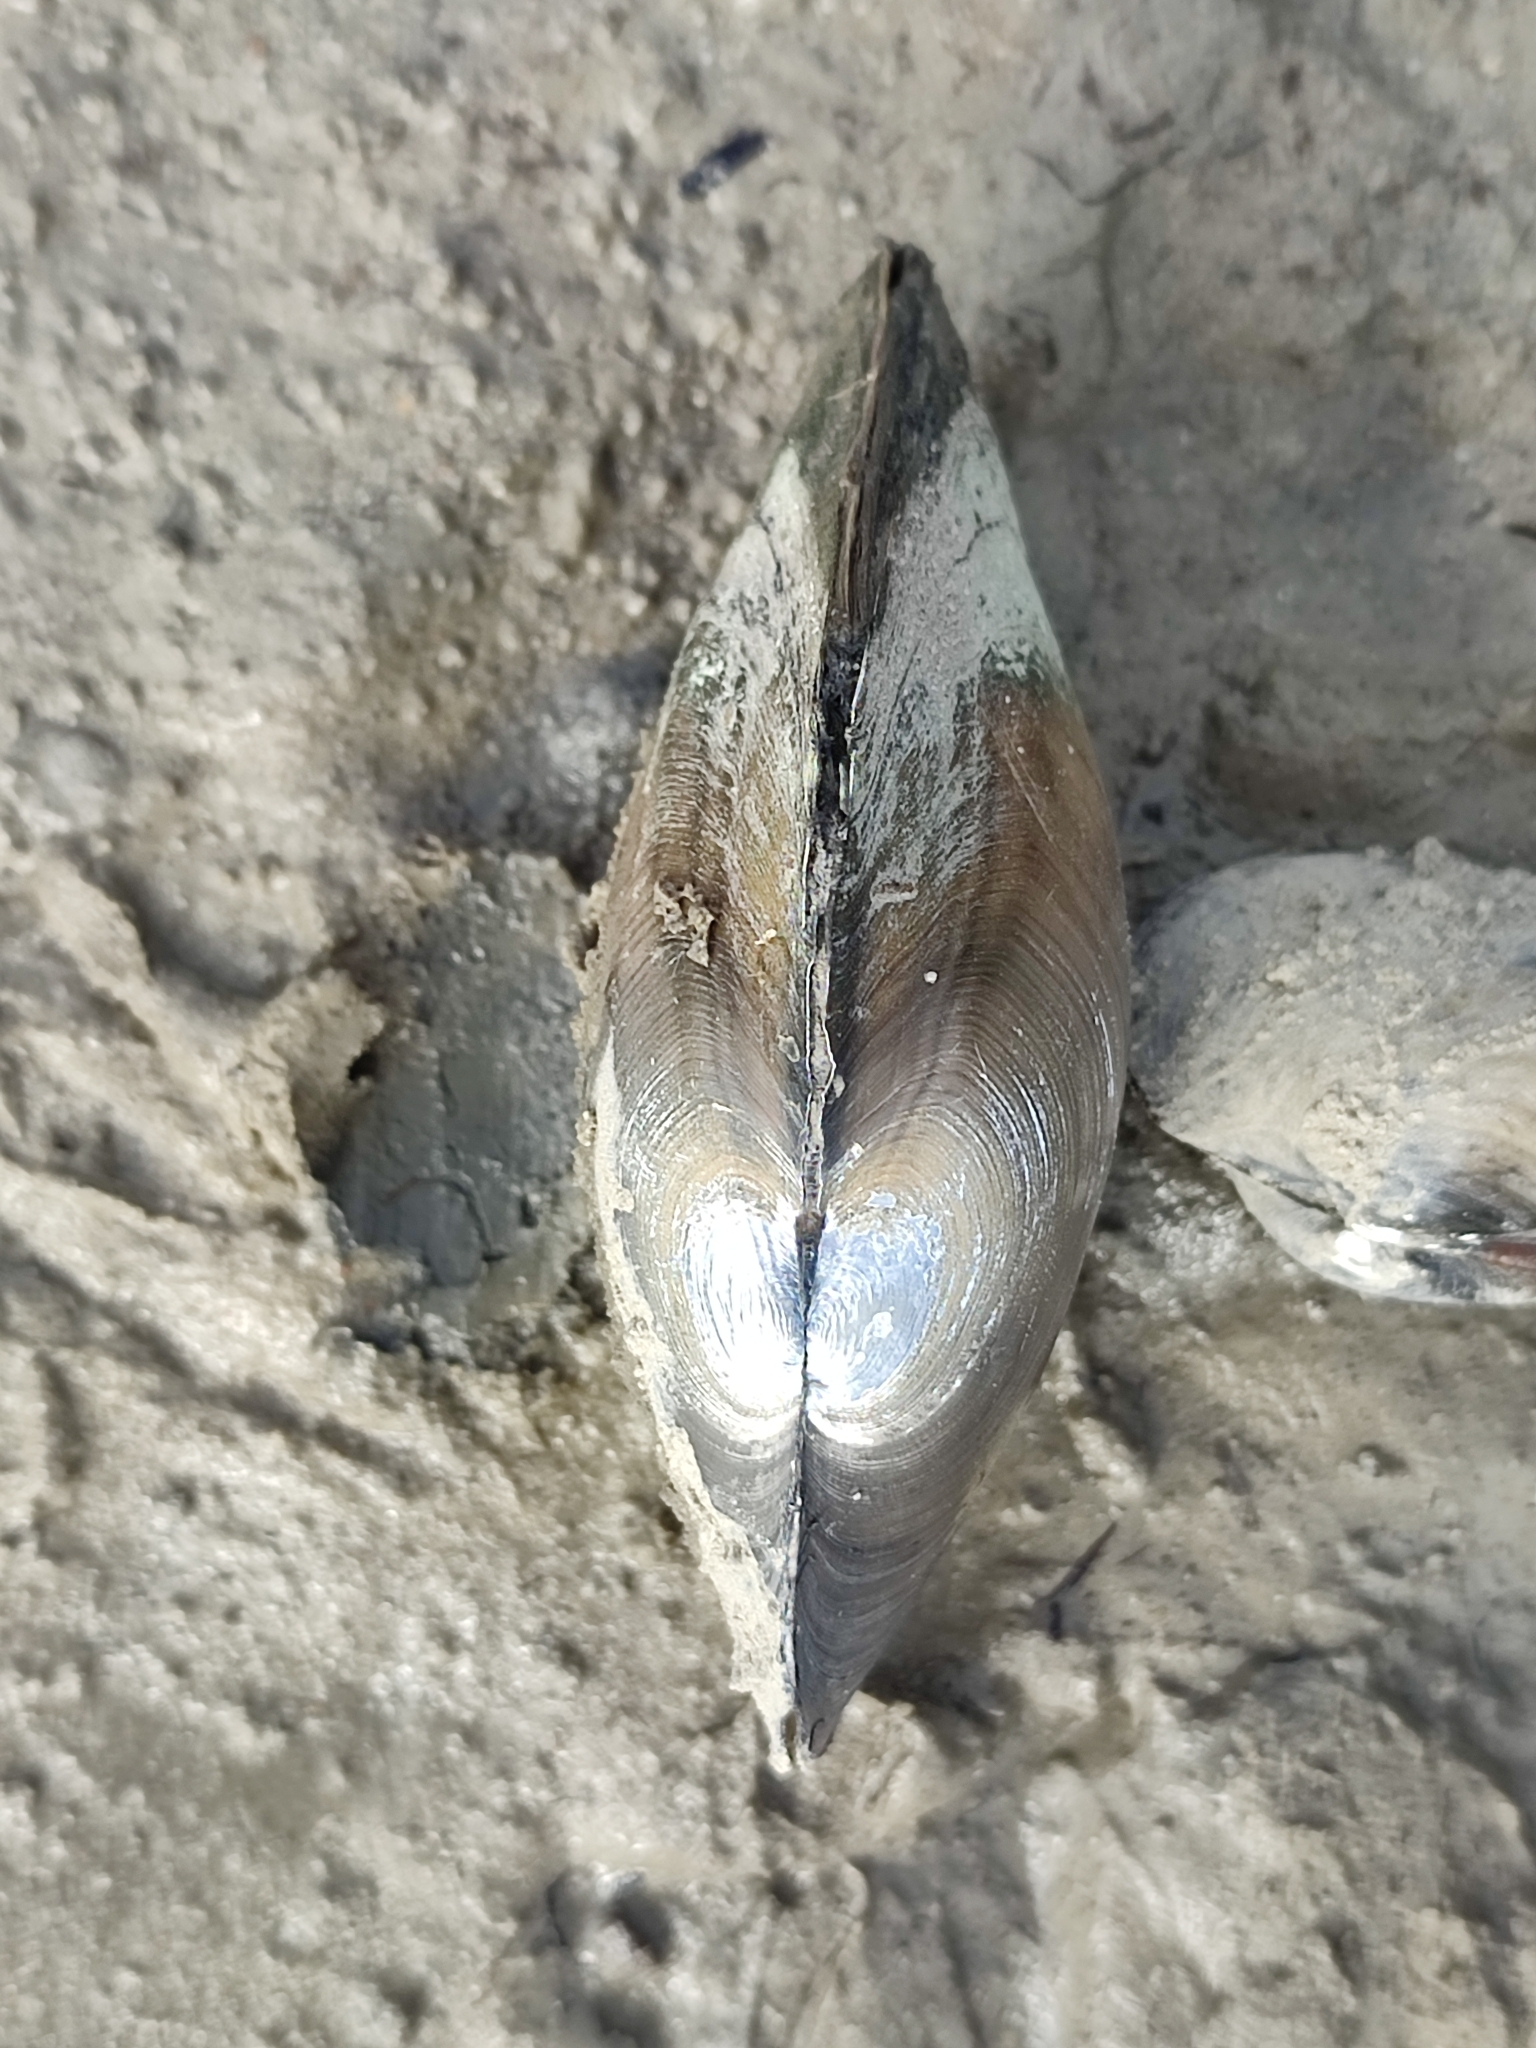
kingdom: Animalia
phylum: Mollusca
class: Bivalvia
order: Unionida
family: Unionidae
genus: Anodonta
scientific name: Anodonta anatina
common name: Duck mussel
